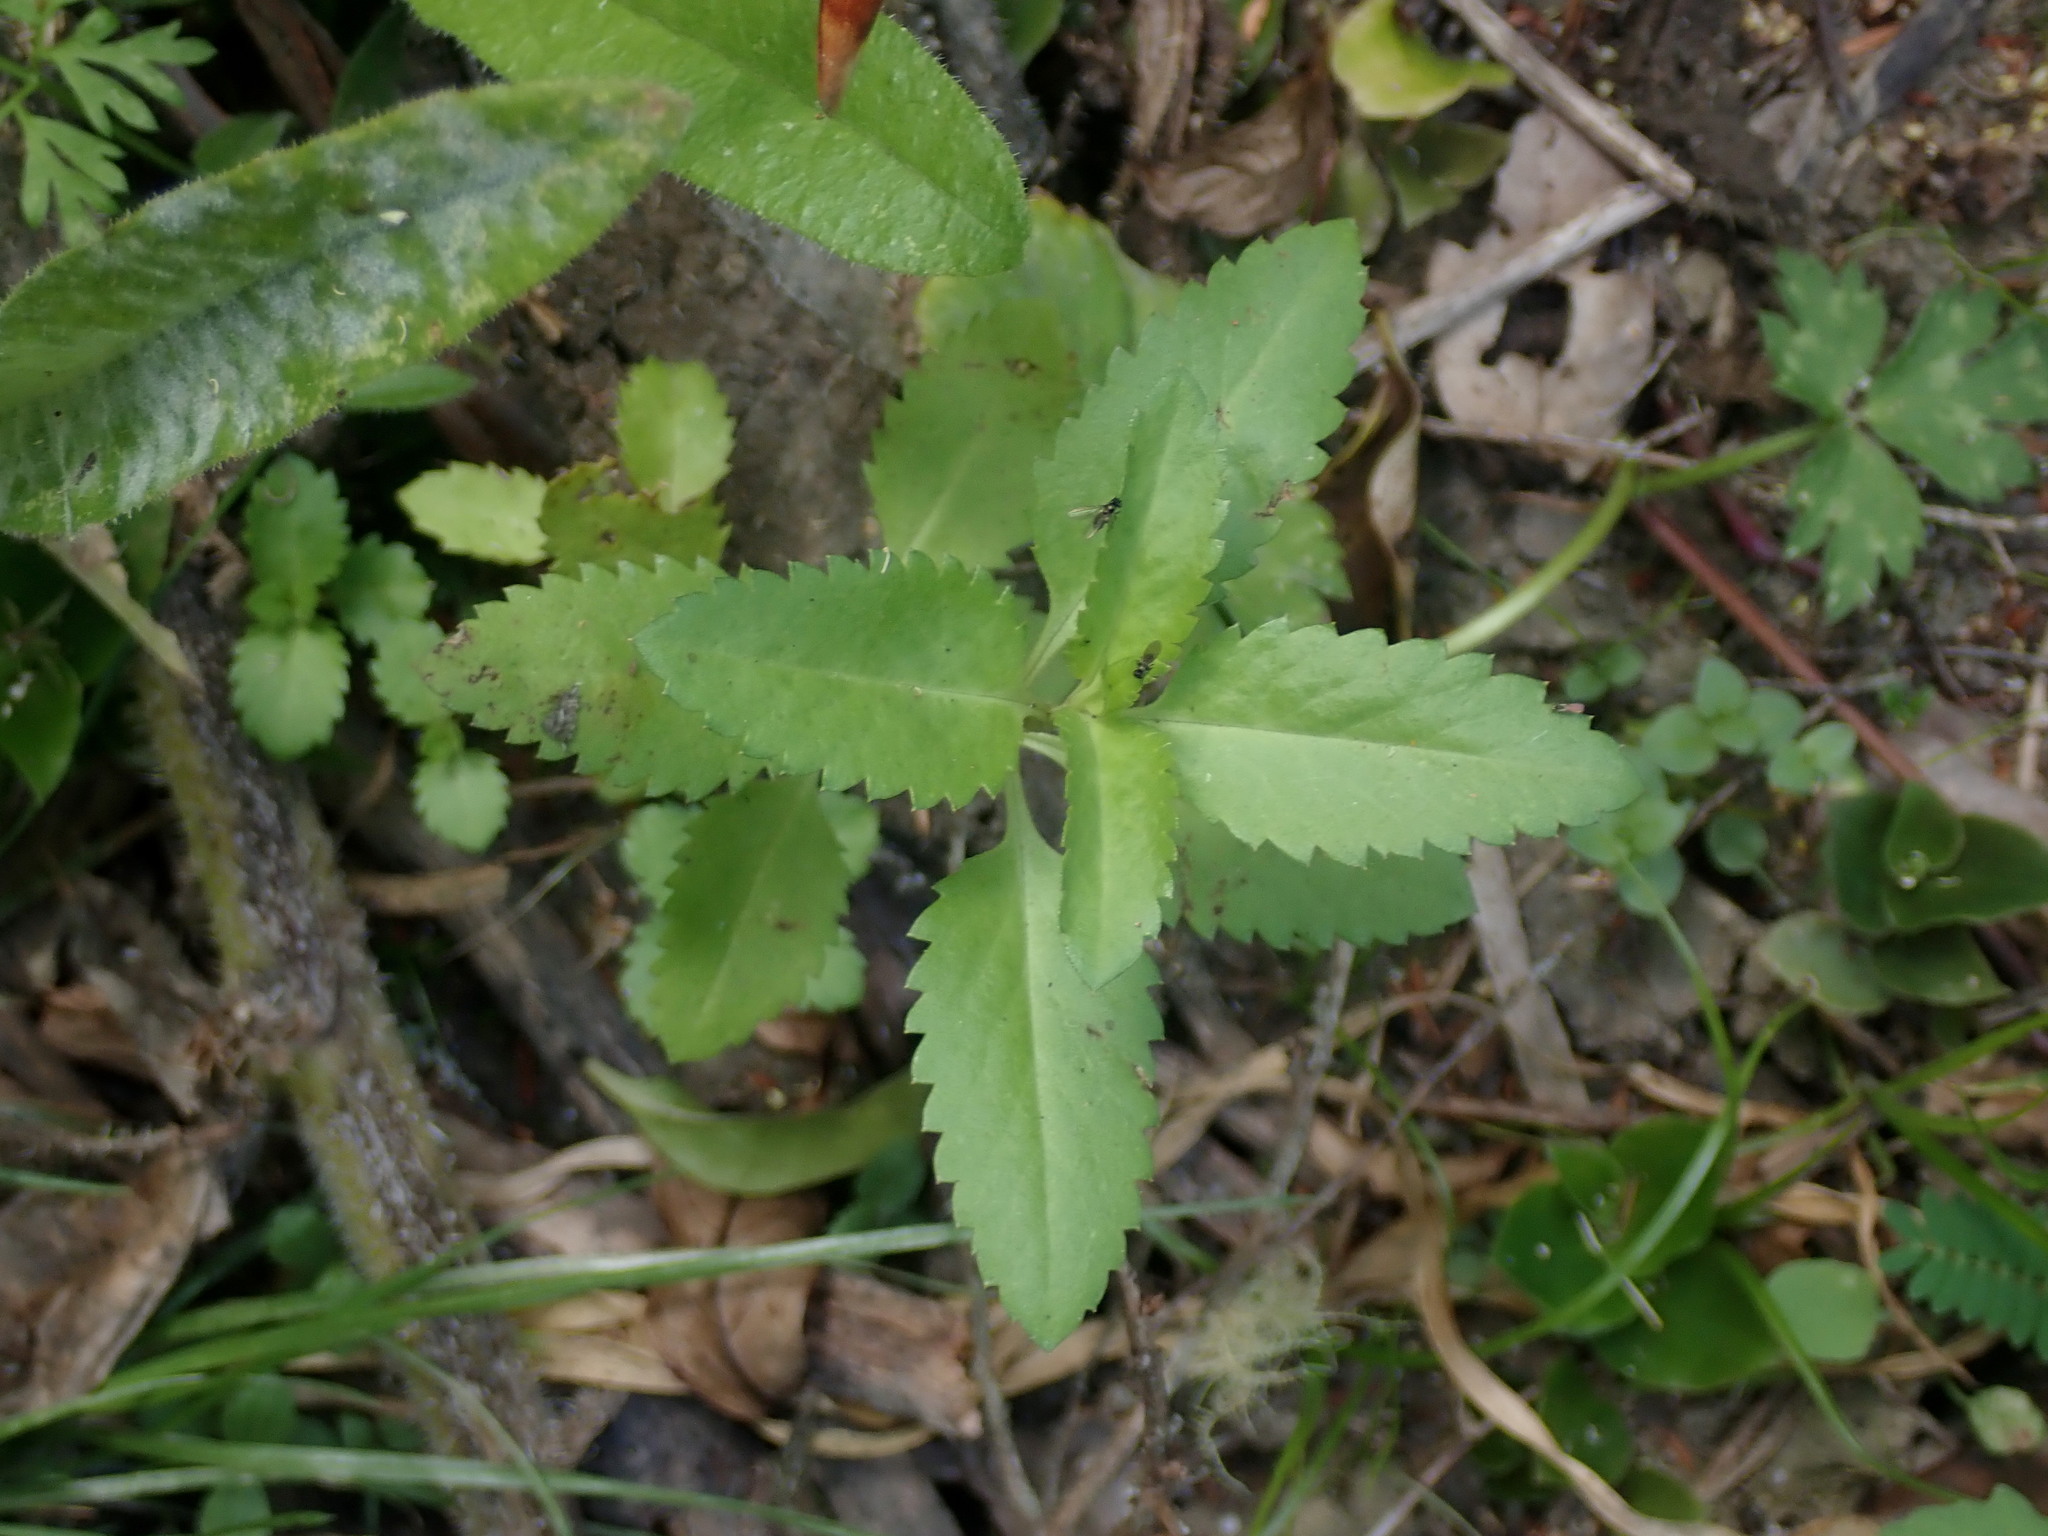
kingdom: Plantae
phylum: Tracheophyta
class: Magnoliopsida
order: Saxifragales
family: Haloragaceae
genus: Haloragis
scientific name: Haloragis erecta
